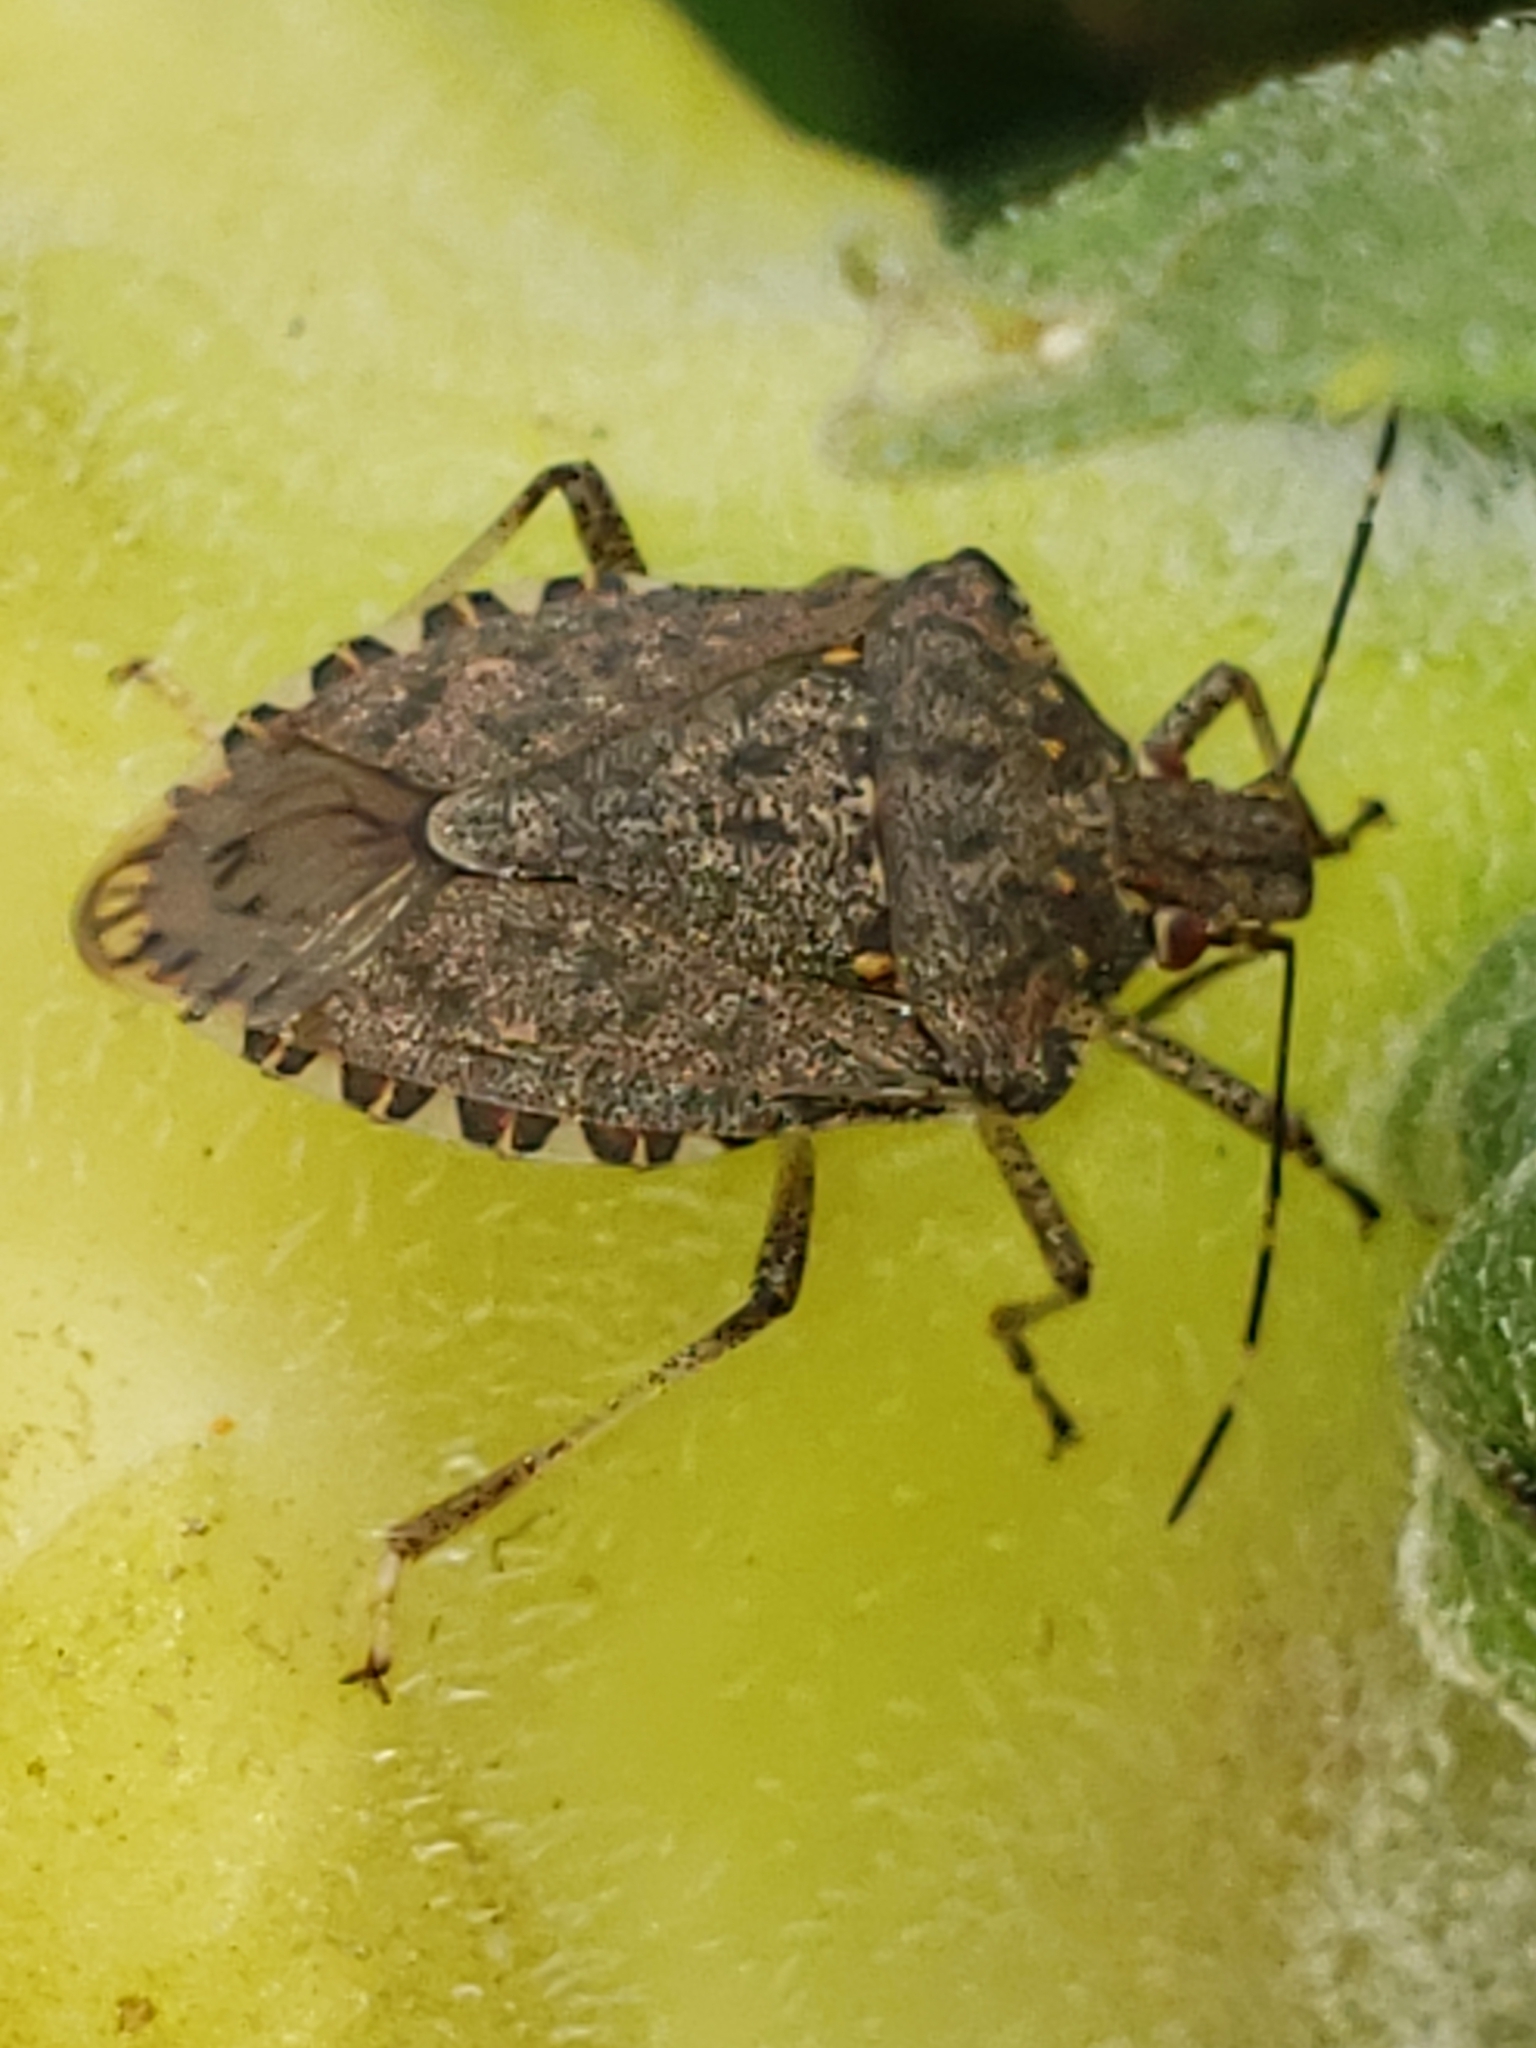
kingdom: Animalia
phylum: Arthropoda
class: Insecta
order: Hemiptera
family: Pentatomidae
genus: Halyomorpha
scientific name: Halyomorpha halys
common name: Brown marmorated stink bug
